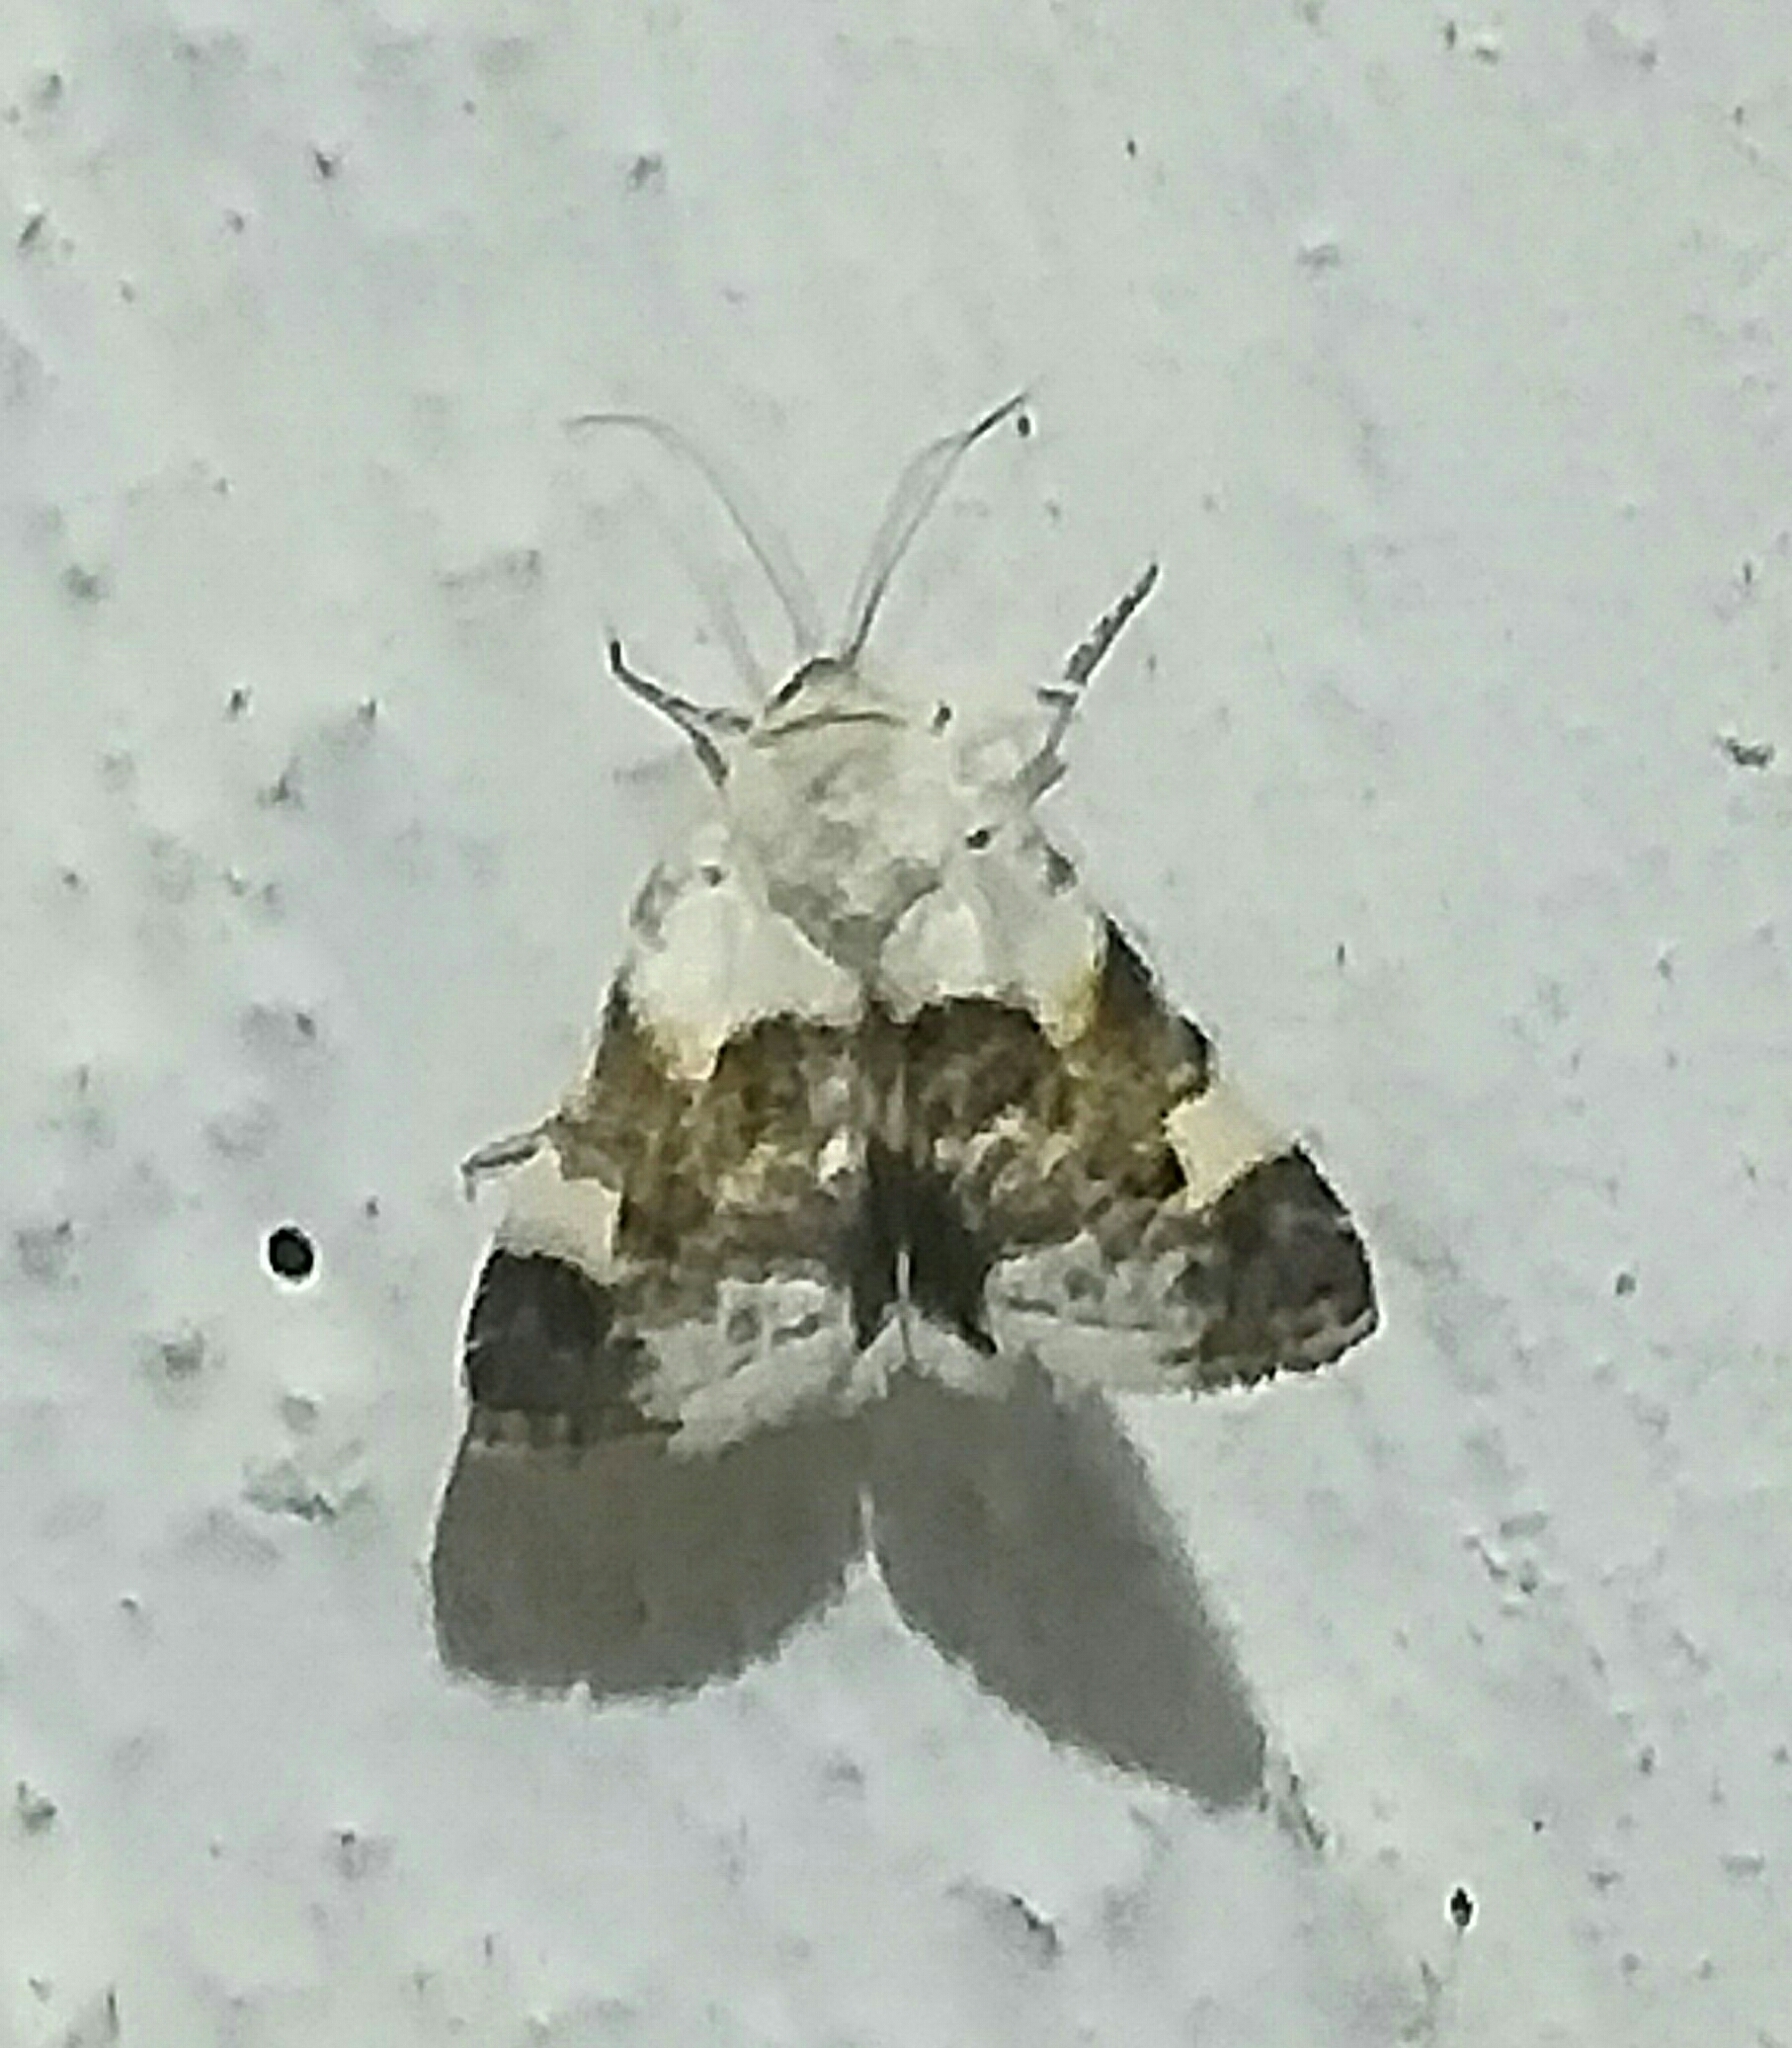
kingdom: Animalia
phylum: Arthropoda
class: Insecta
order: Lepidoptera
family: Noctuidae
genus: Acontia
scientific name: Acontia lucida
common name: Pale shoulder
